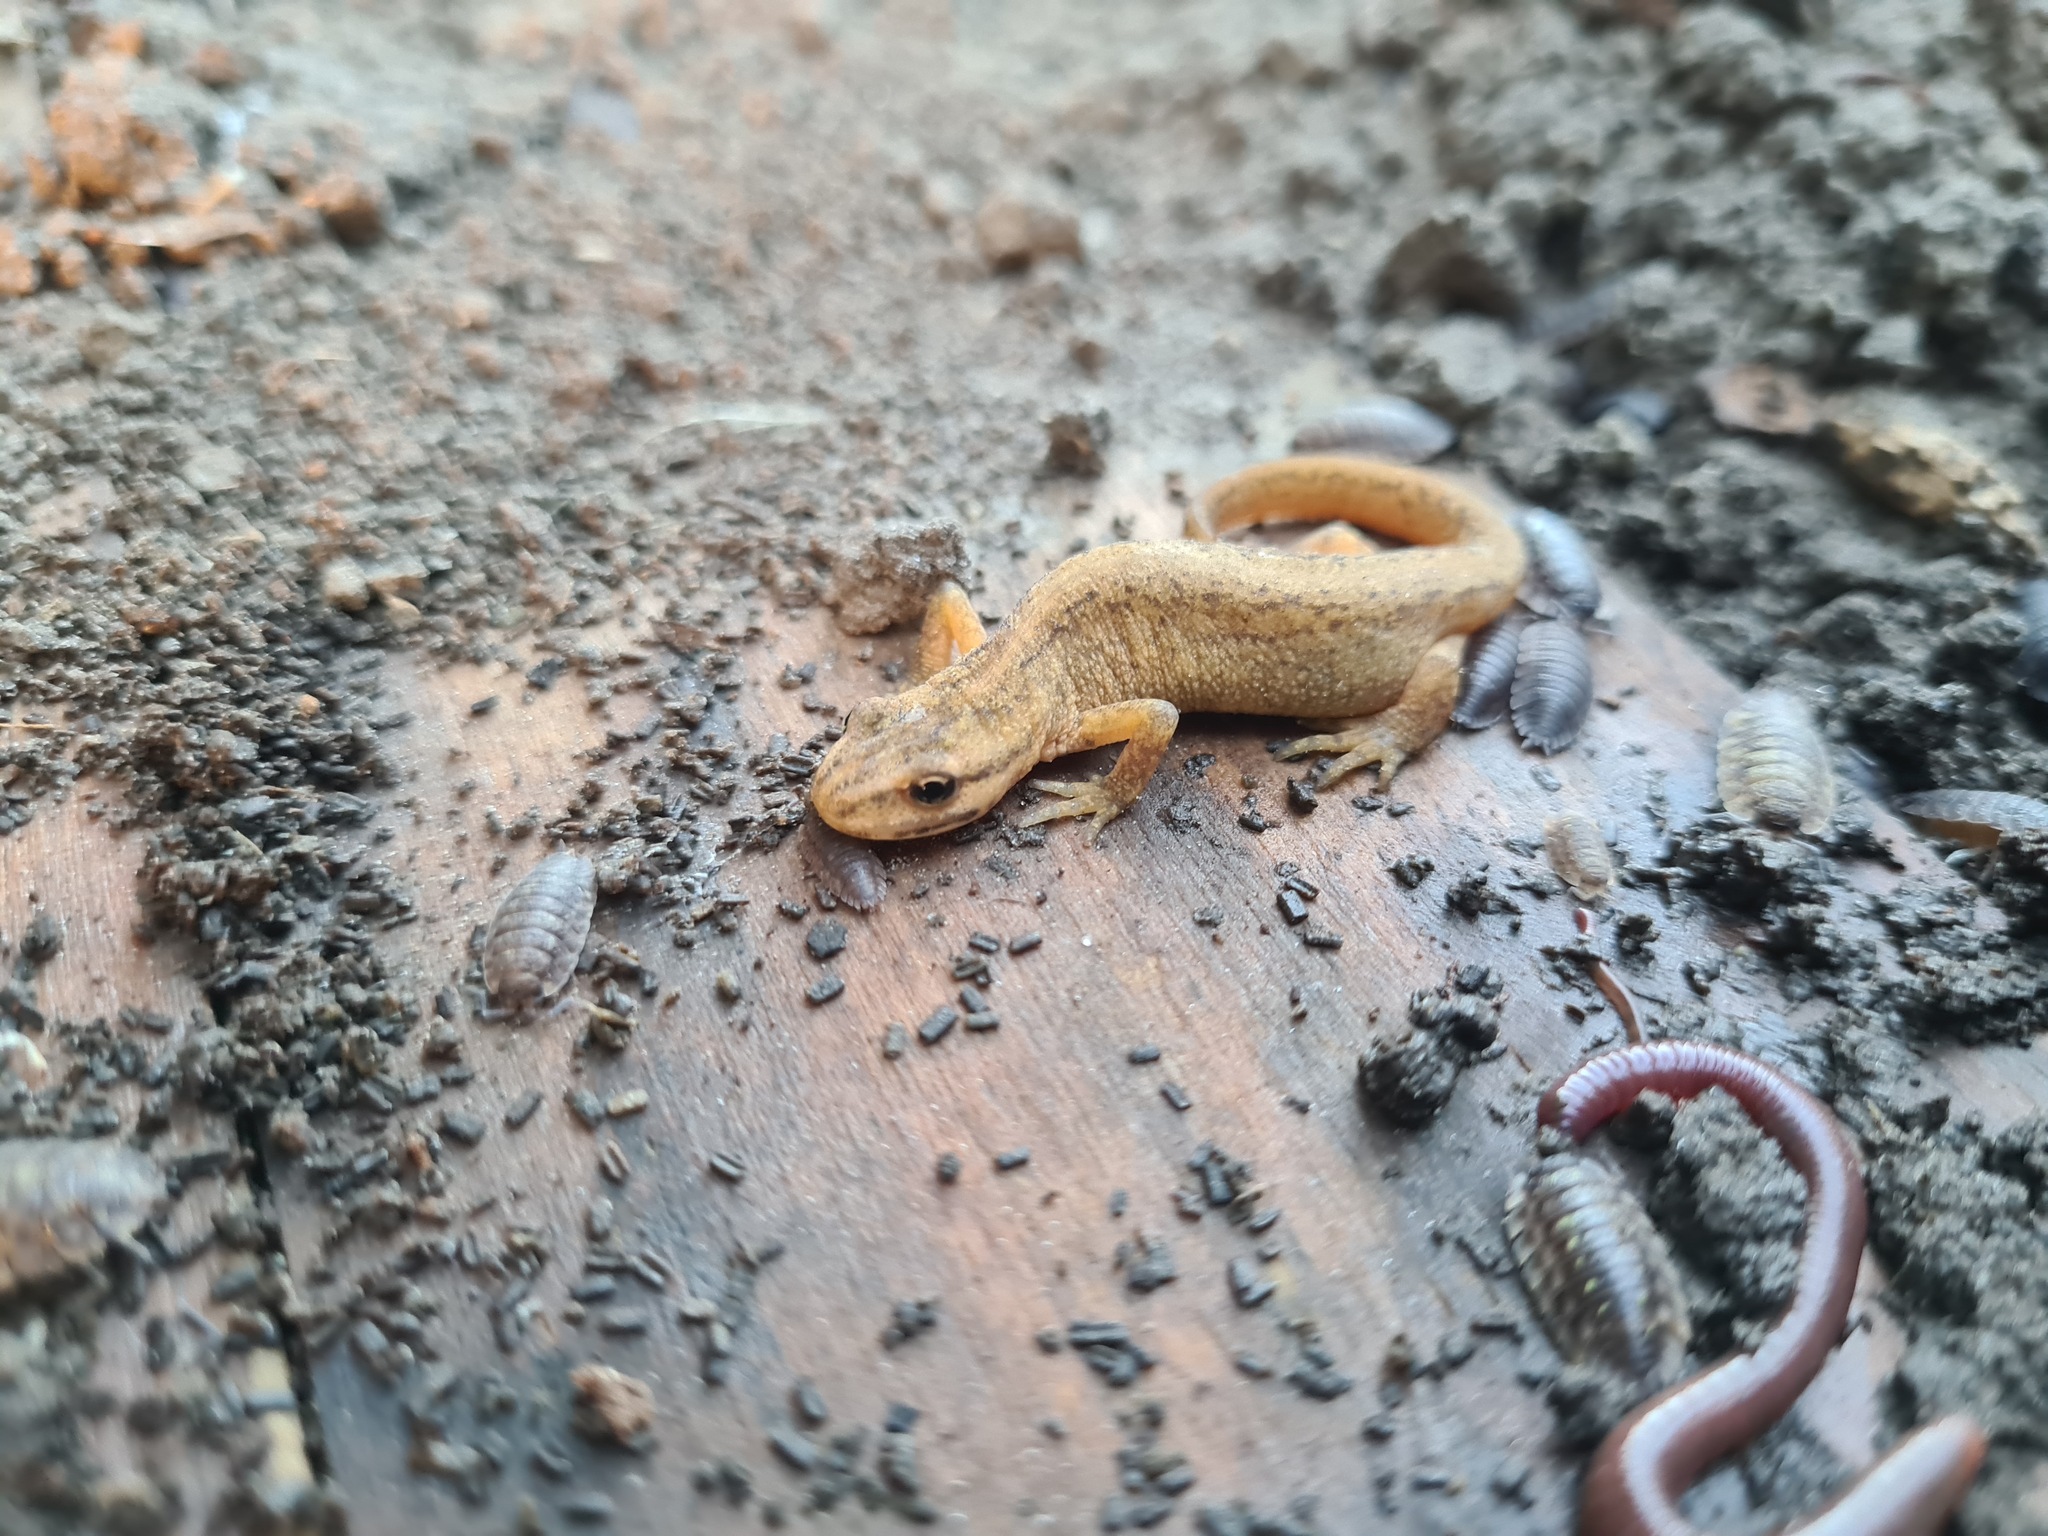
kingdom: Animalia
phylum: Chordata
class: Amphibia
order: Caudata
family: Salamandridae
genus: Lissotriton
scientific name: Lissotriton vulgaris
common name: Smooth newt
